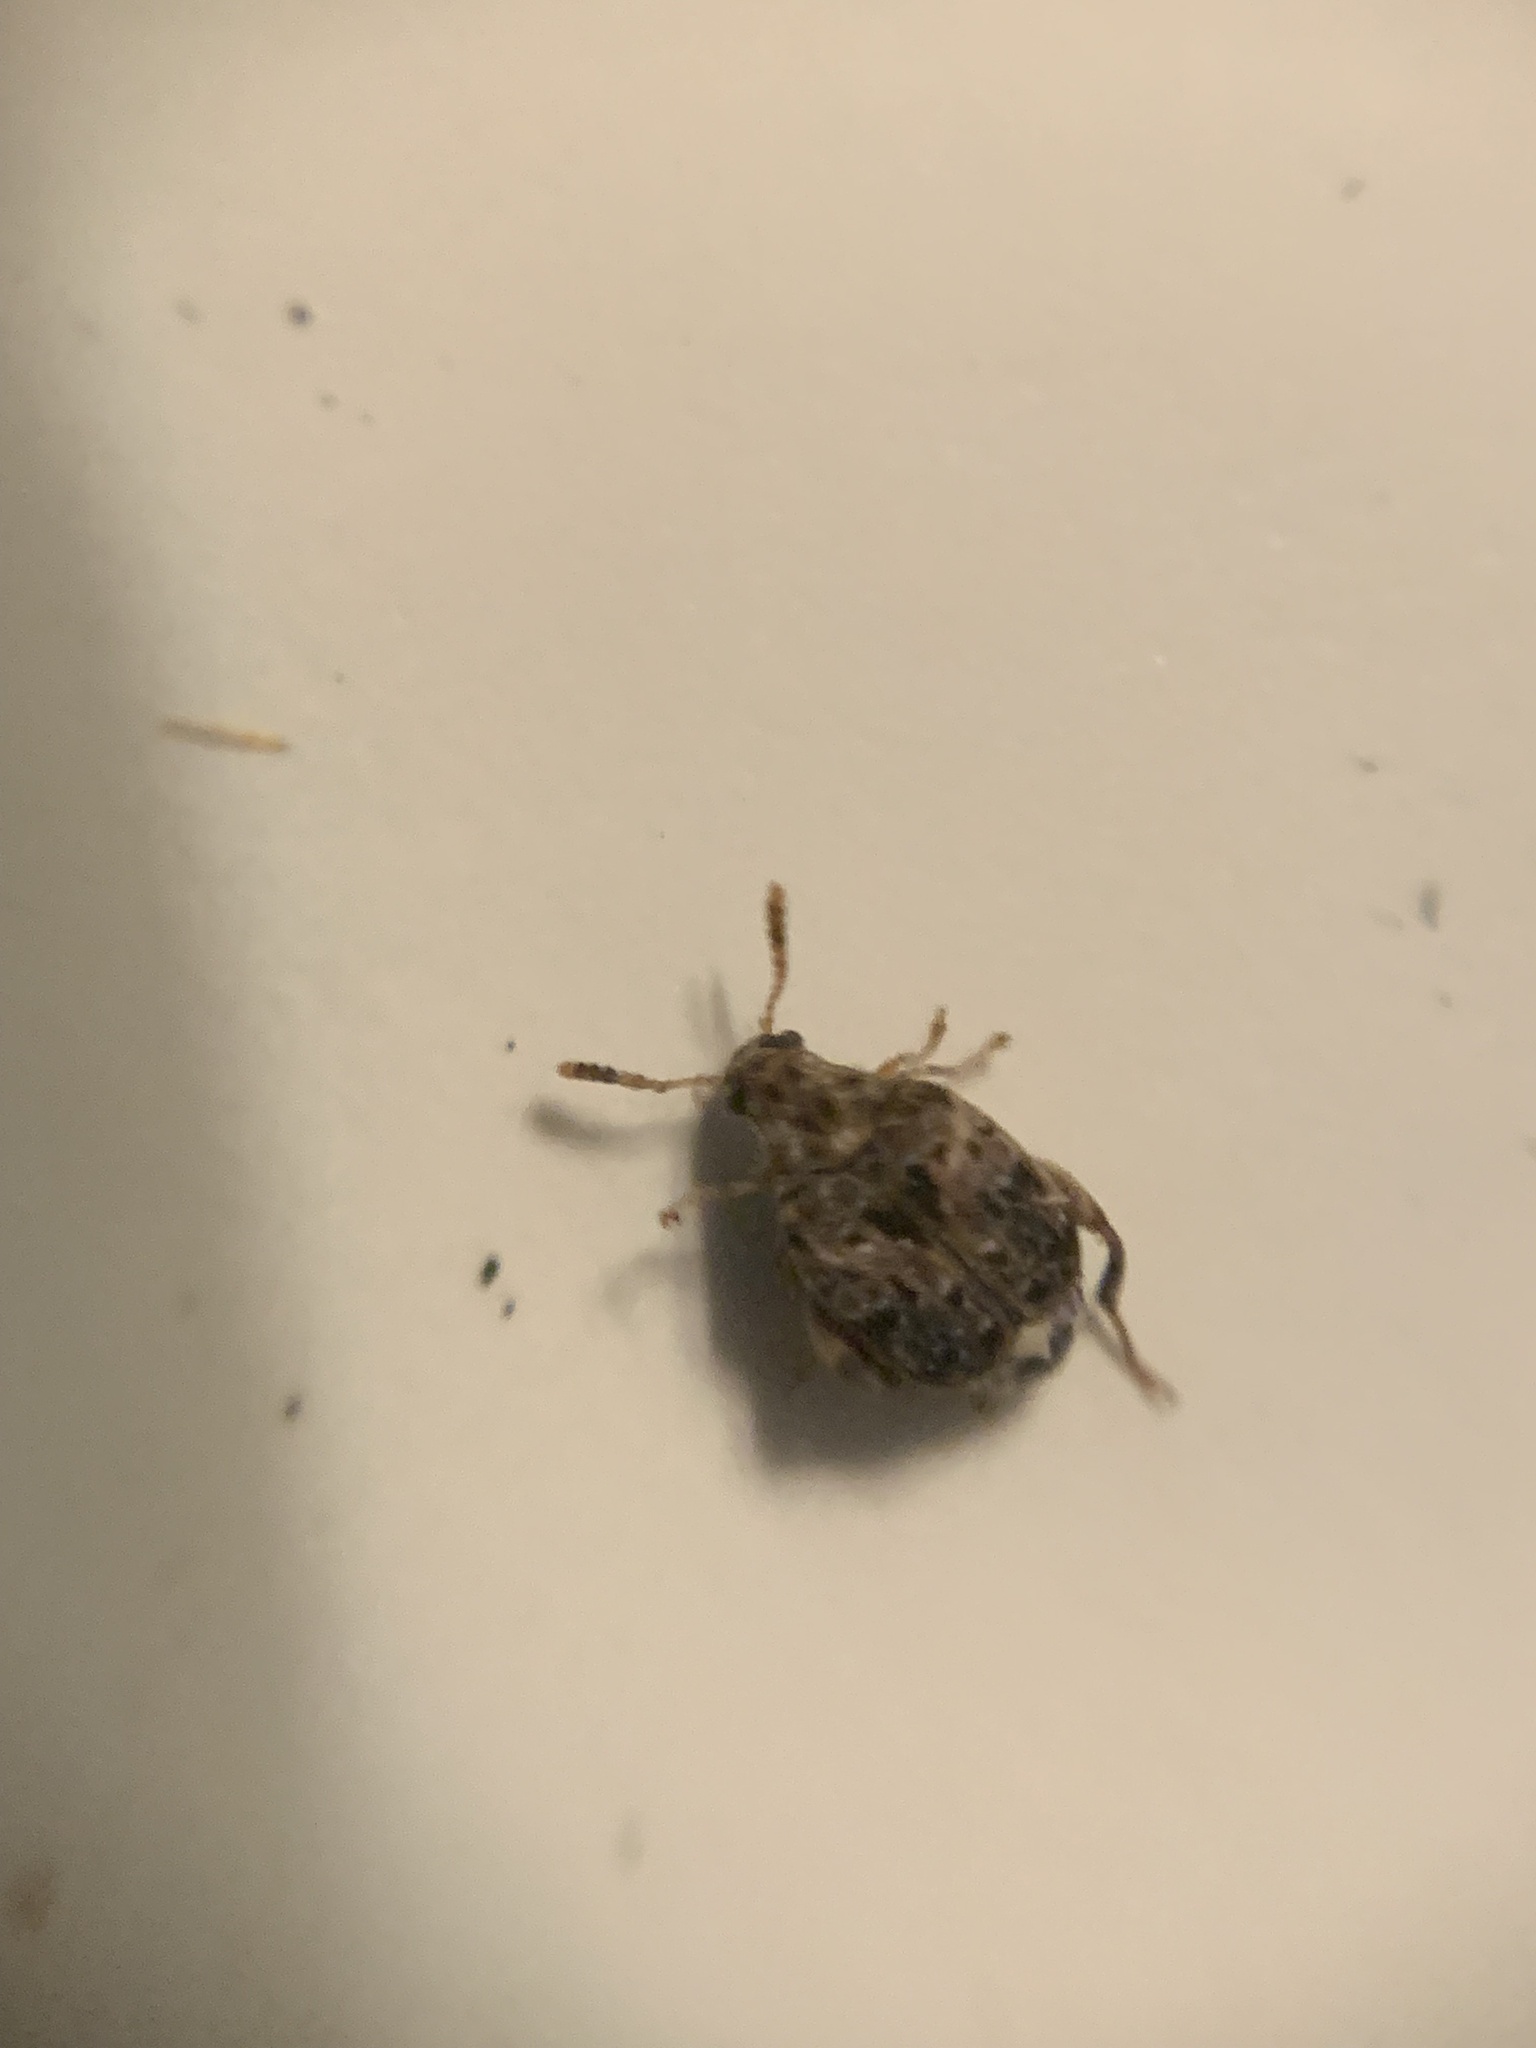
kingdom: Animalia
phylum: Arthropoda
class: Insecta
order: Coleoptera
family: Chrysomelidae
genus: Gibbobruchus
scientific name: Gibbobruchus mimus
